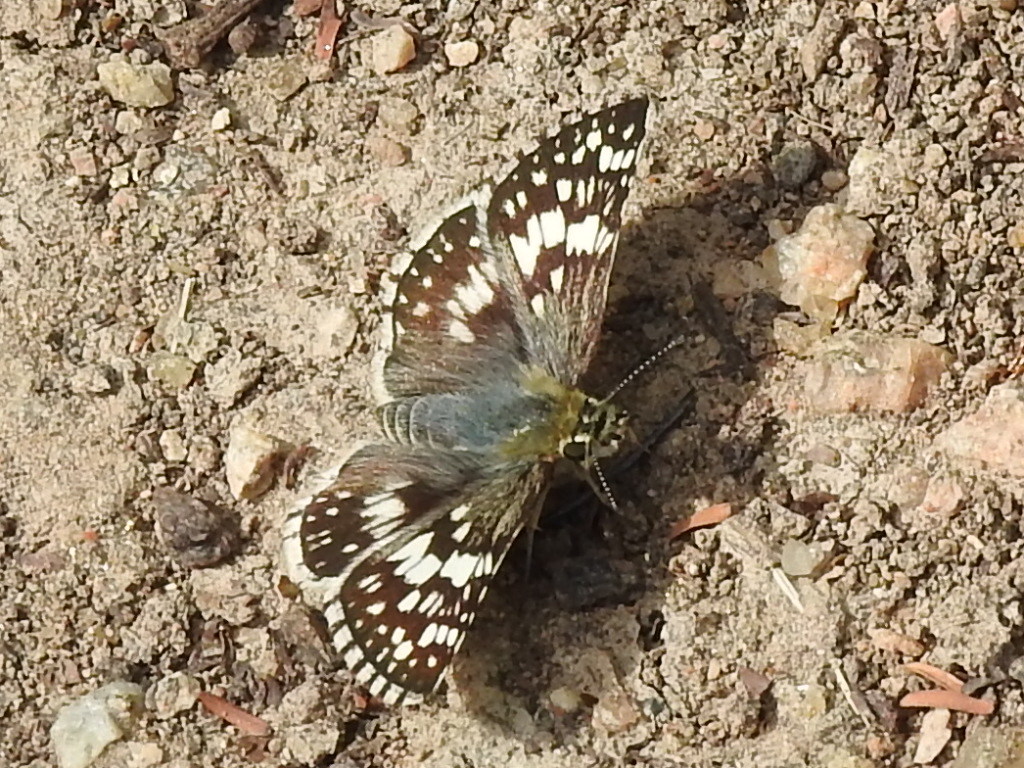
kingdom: Animalia
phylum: Arthropoda
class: Insecta
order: Lepidoptera
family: Hesperiidae
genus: Burnsius
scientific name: Burnsius
